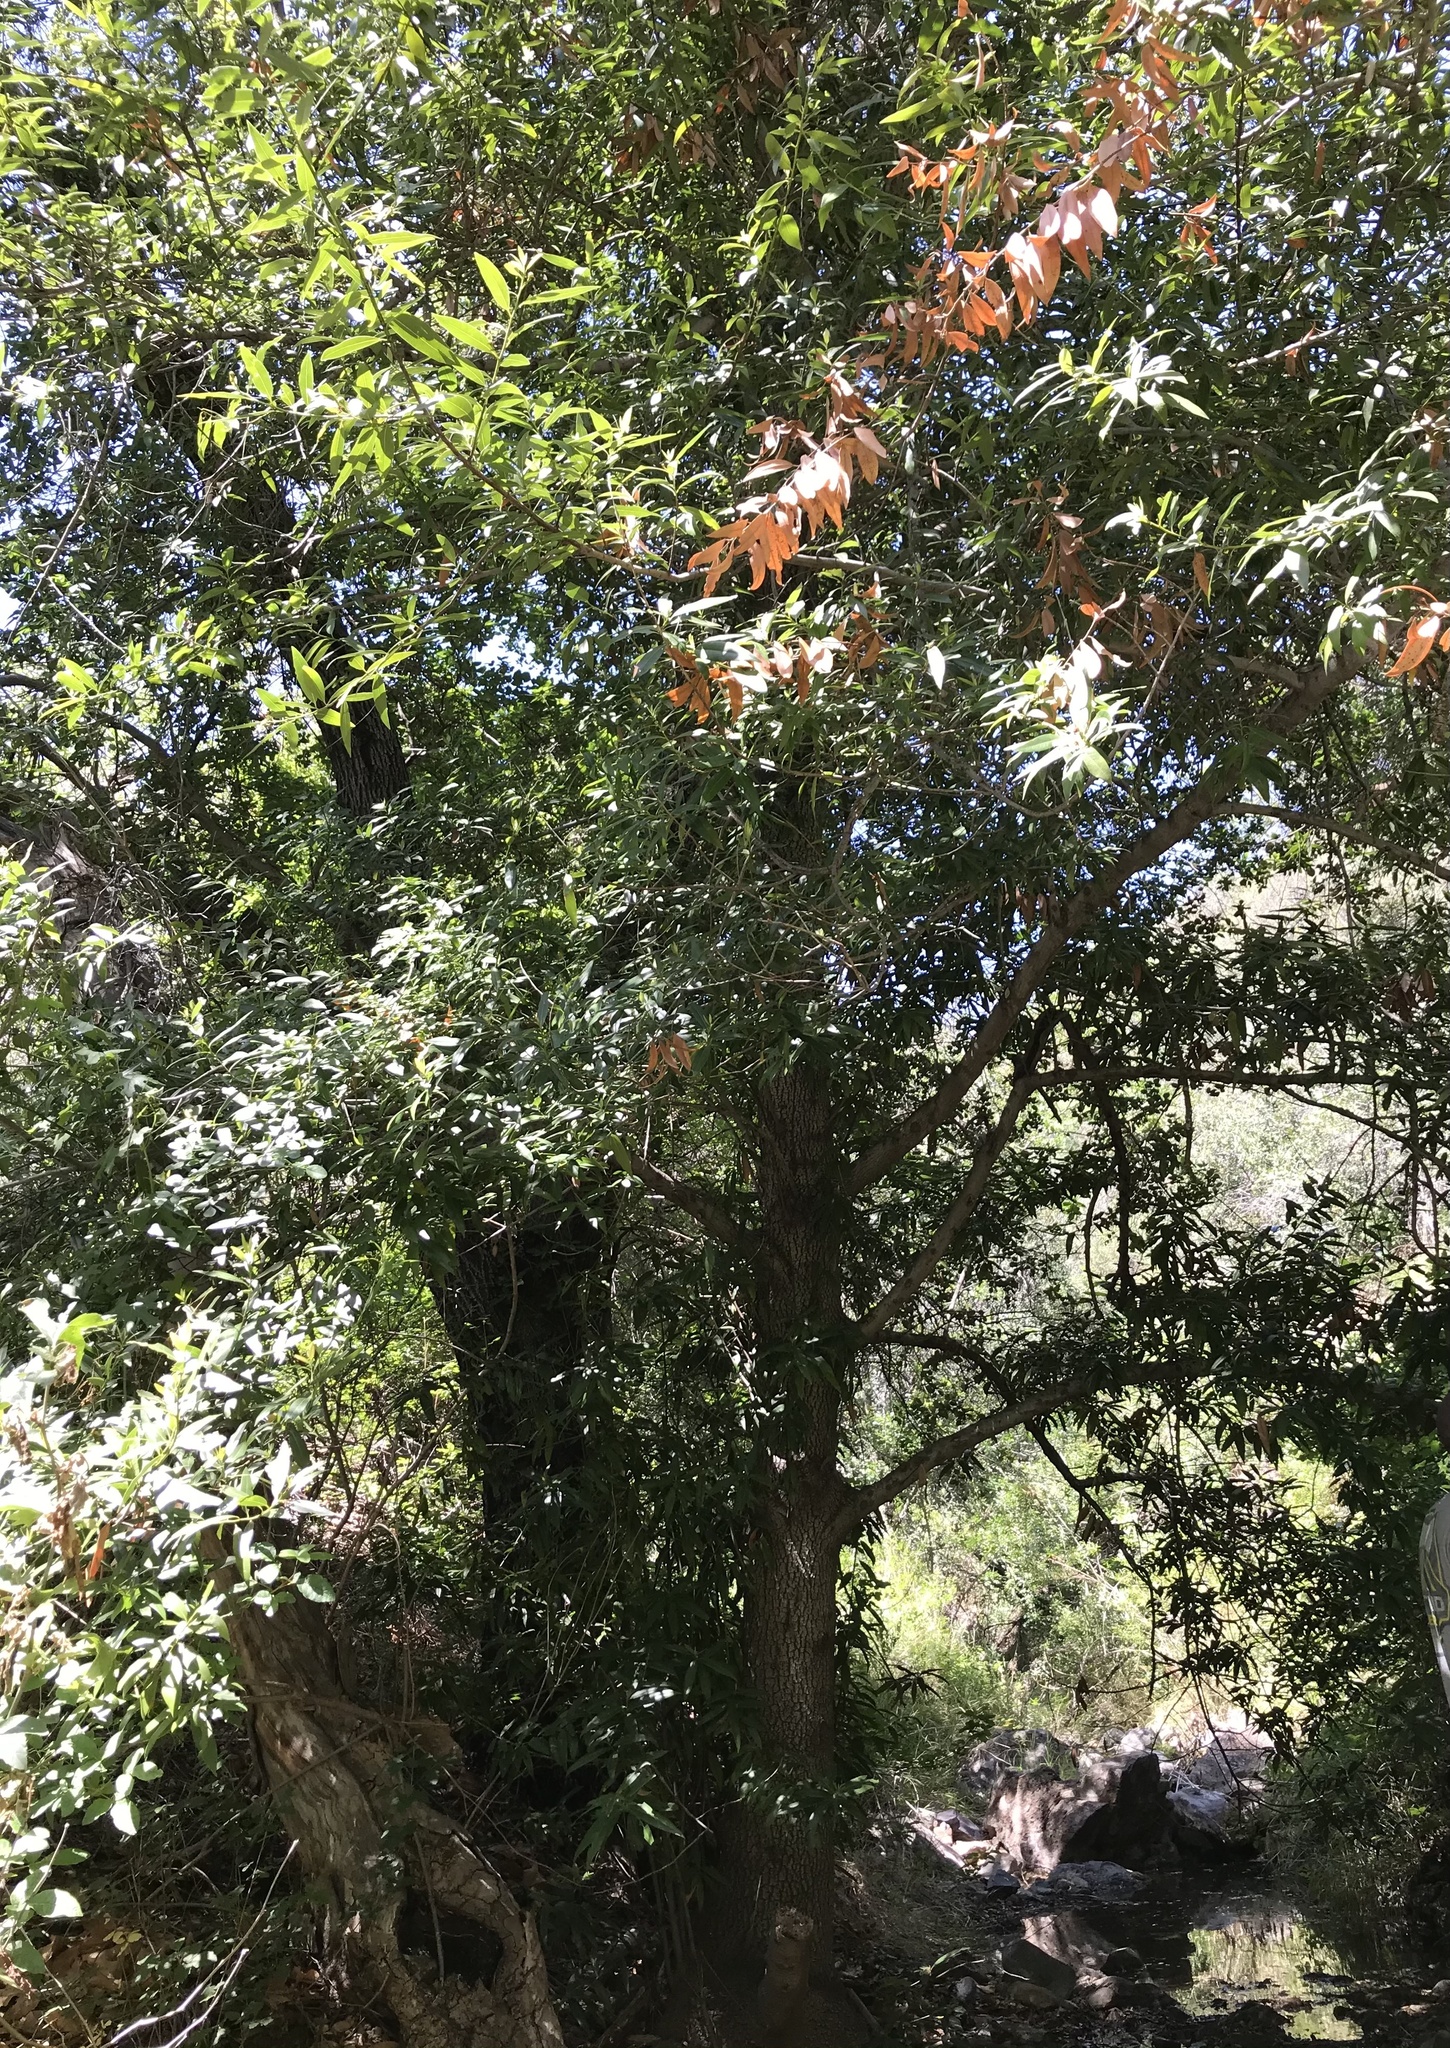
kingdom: Plantae
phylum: Tracheophyta
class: Magnoliopsida
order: Laurales
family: Lauraceae
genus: Umbellularia
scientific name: Umbellularia californica
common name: California bay
